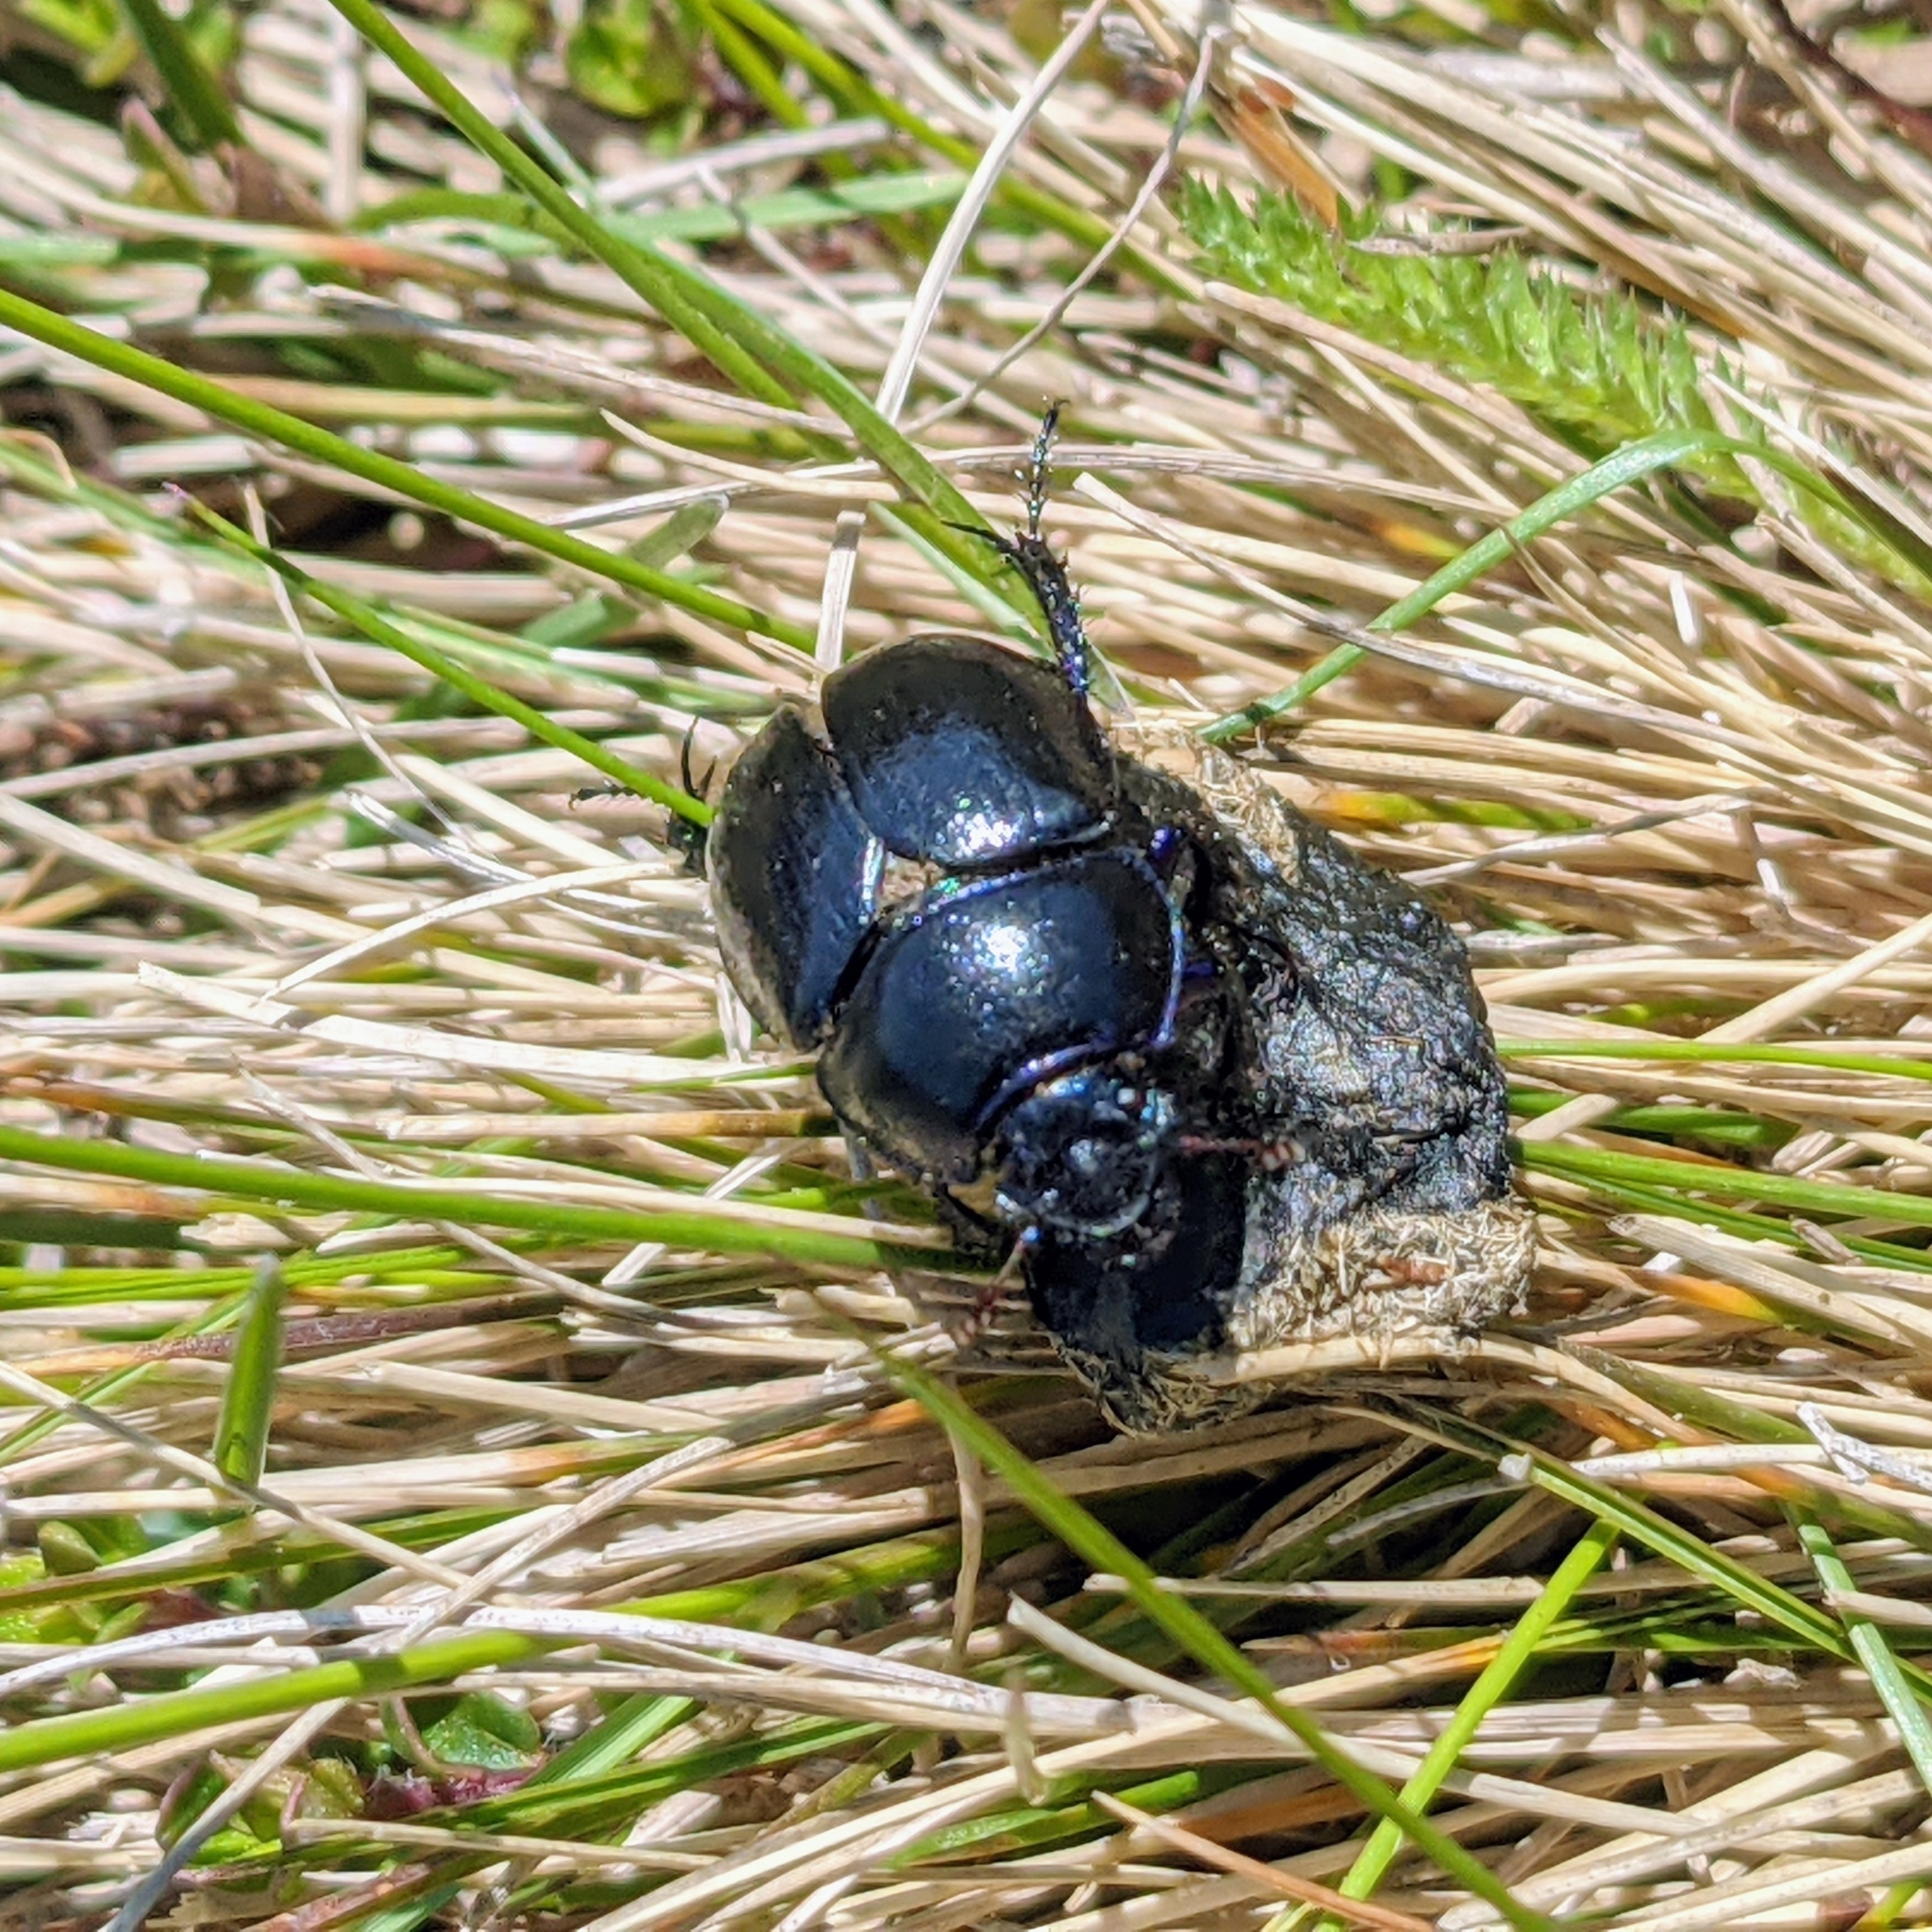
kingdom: Animalia
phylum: Arthropoda
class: Insecta
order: Coleoptera
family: Geotrupidae
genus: Anoplotrupes
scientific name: Anoplotrupes stercorosus
